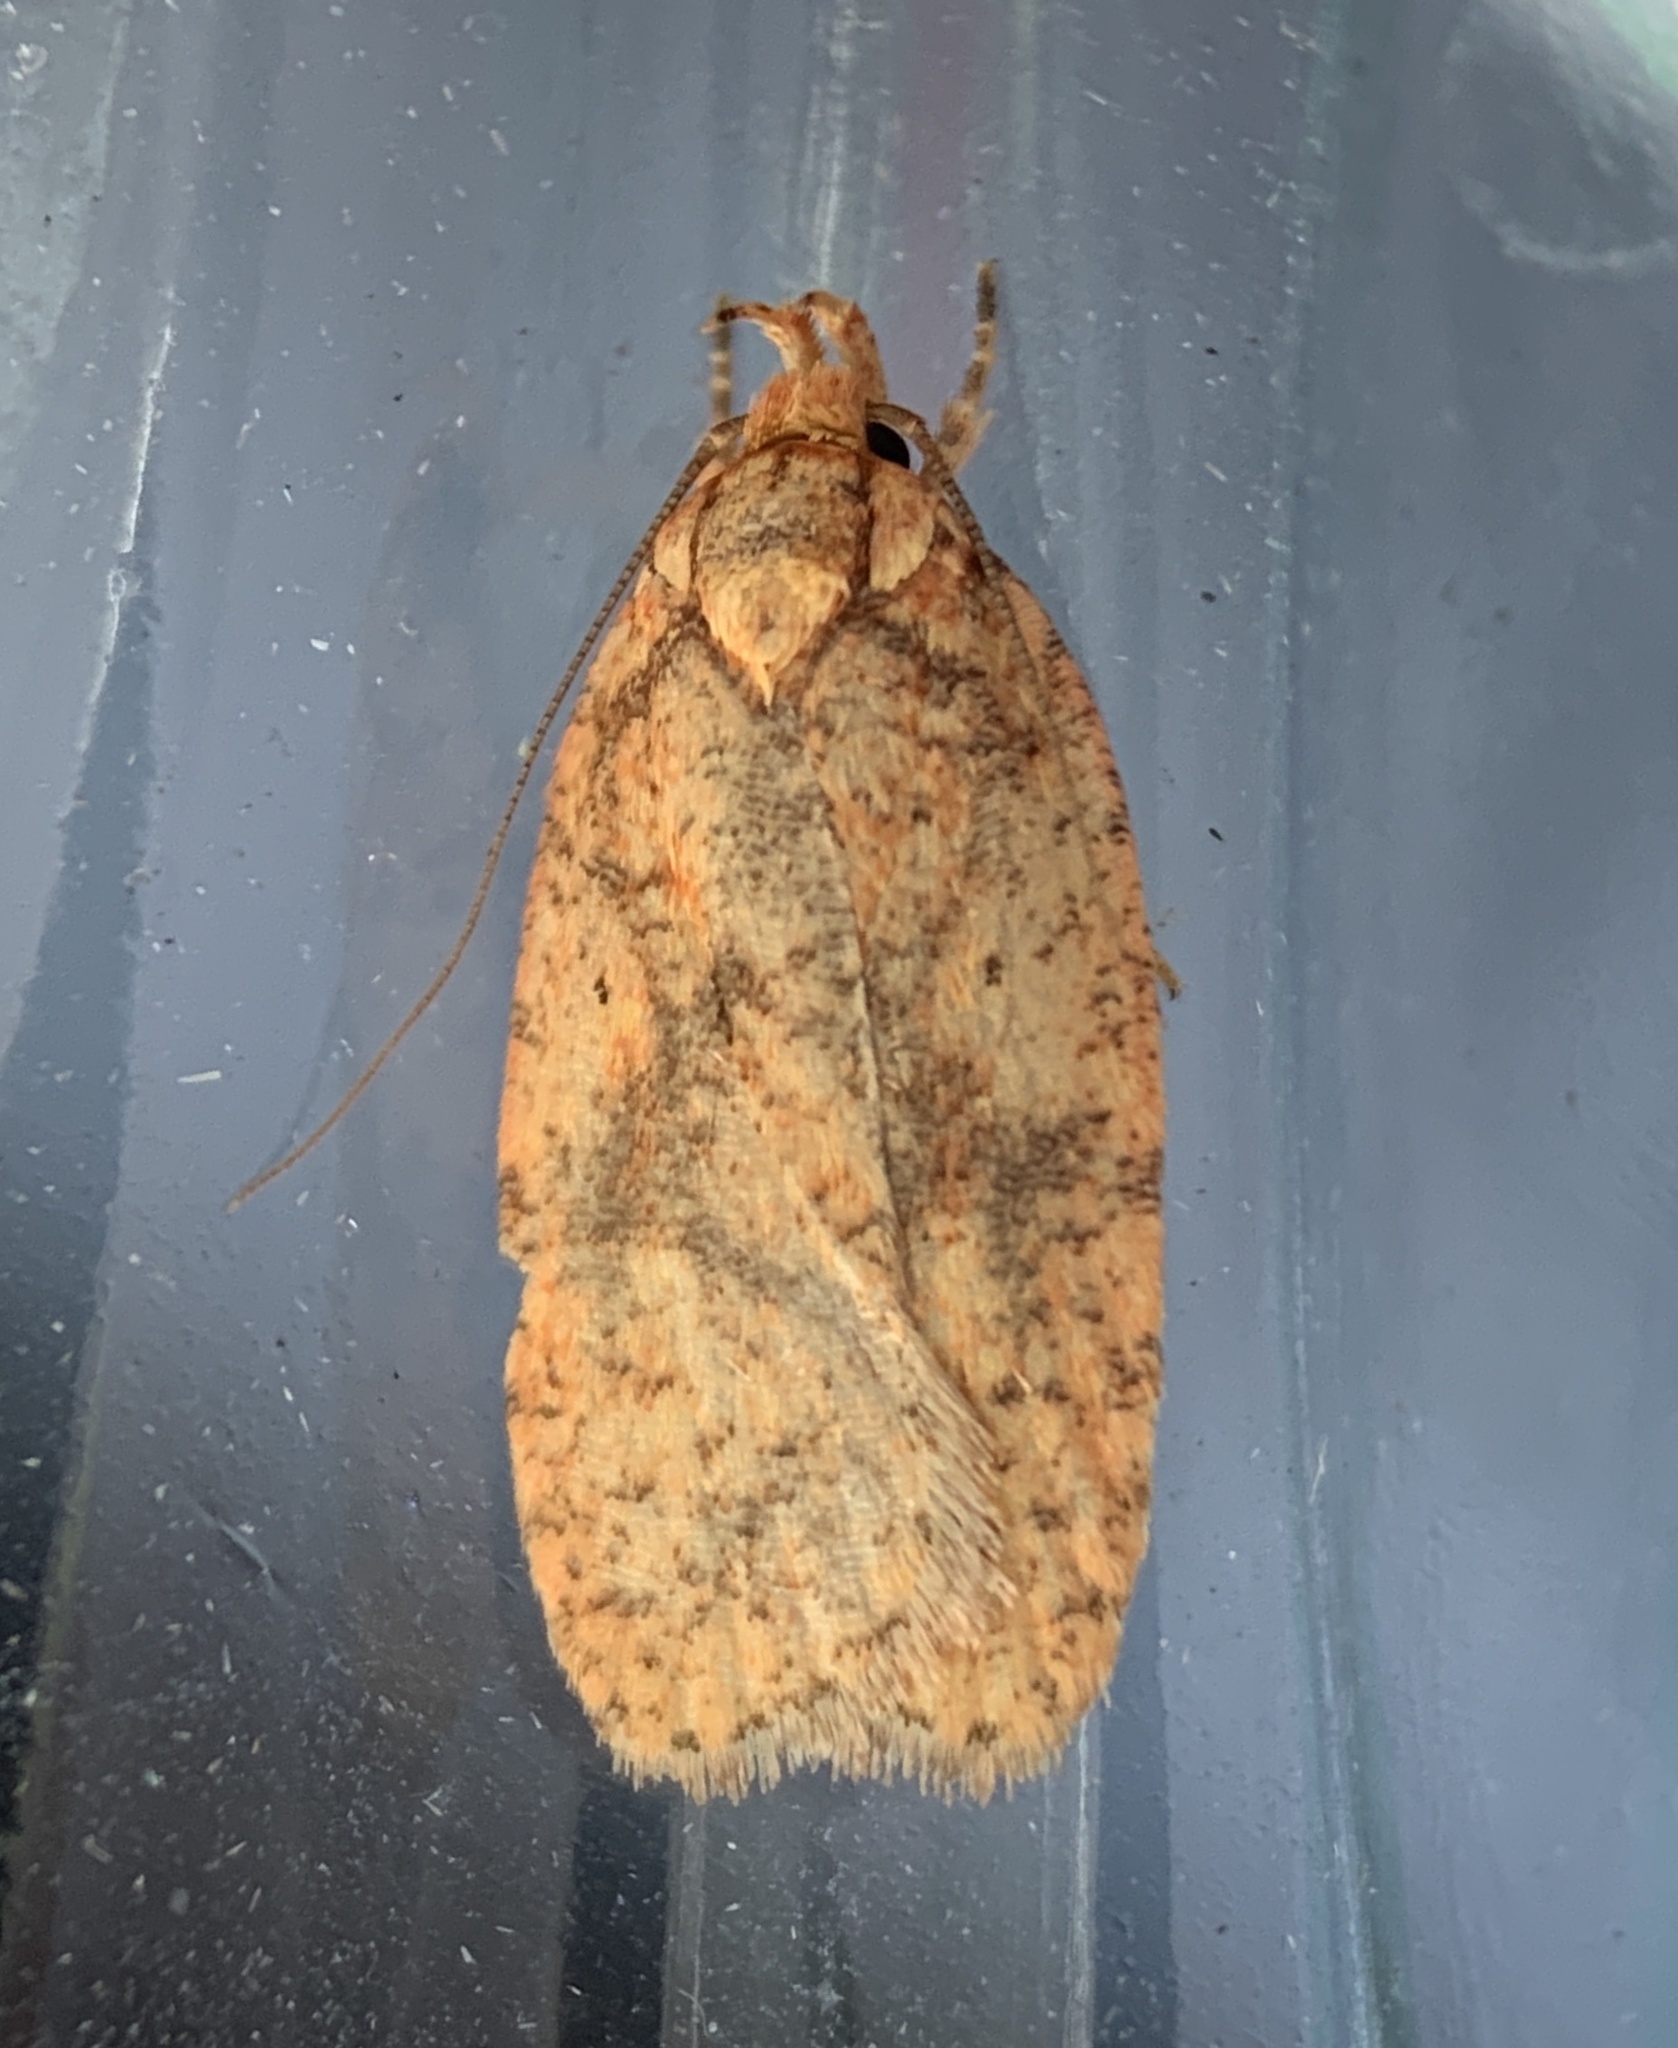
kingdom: Animalia
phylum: Arthropoda
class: Insecta
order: Lepidoptera
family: Depressariidae
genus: Agonopterix
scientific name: Agonopterix robiniella
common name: Four-dotted agonopterix moth
